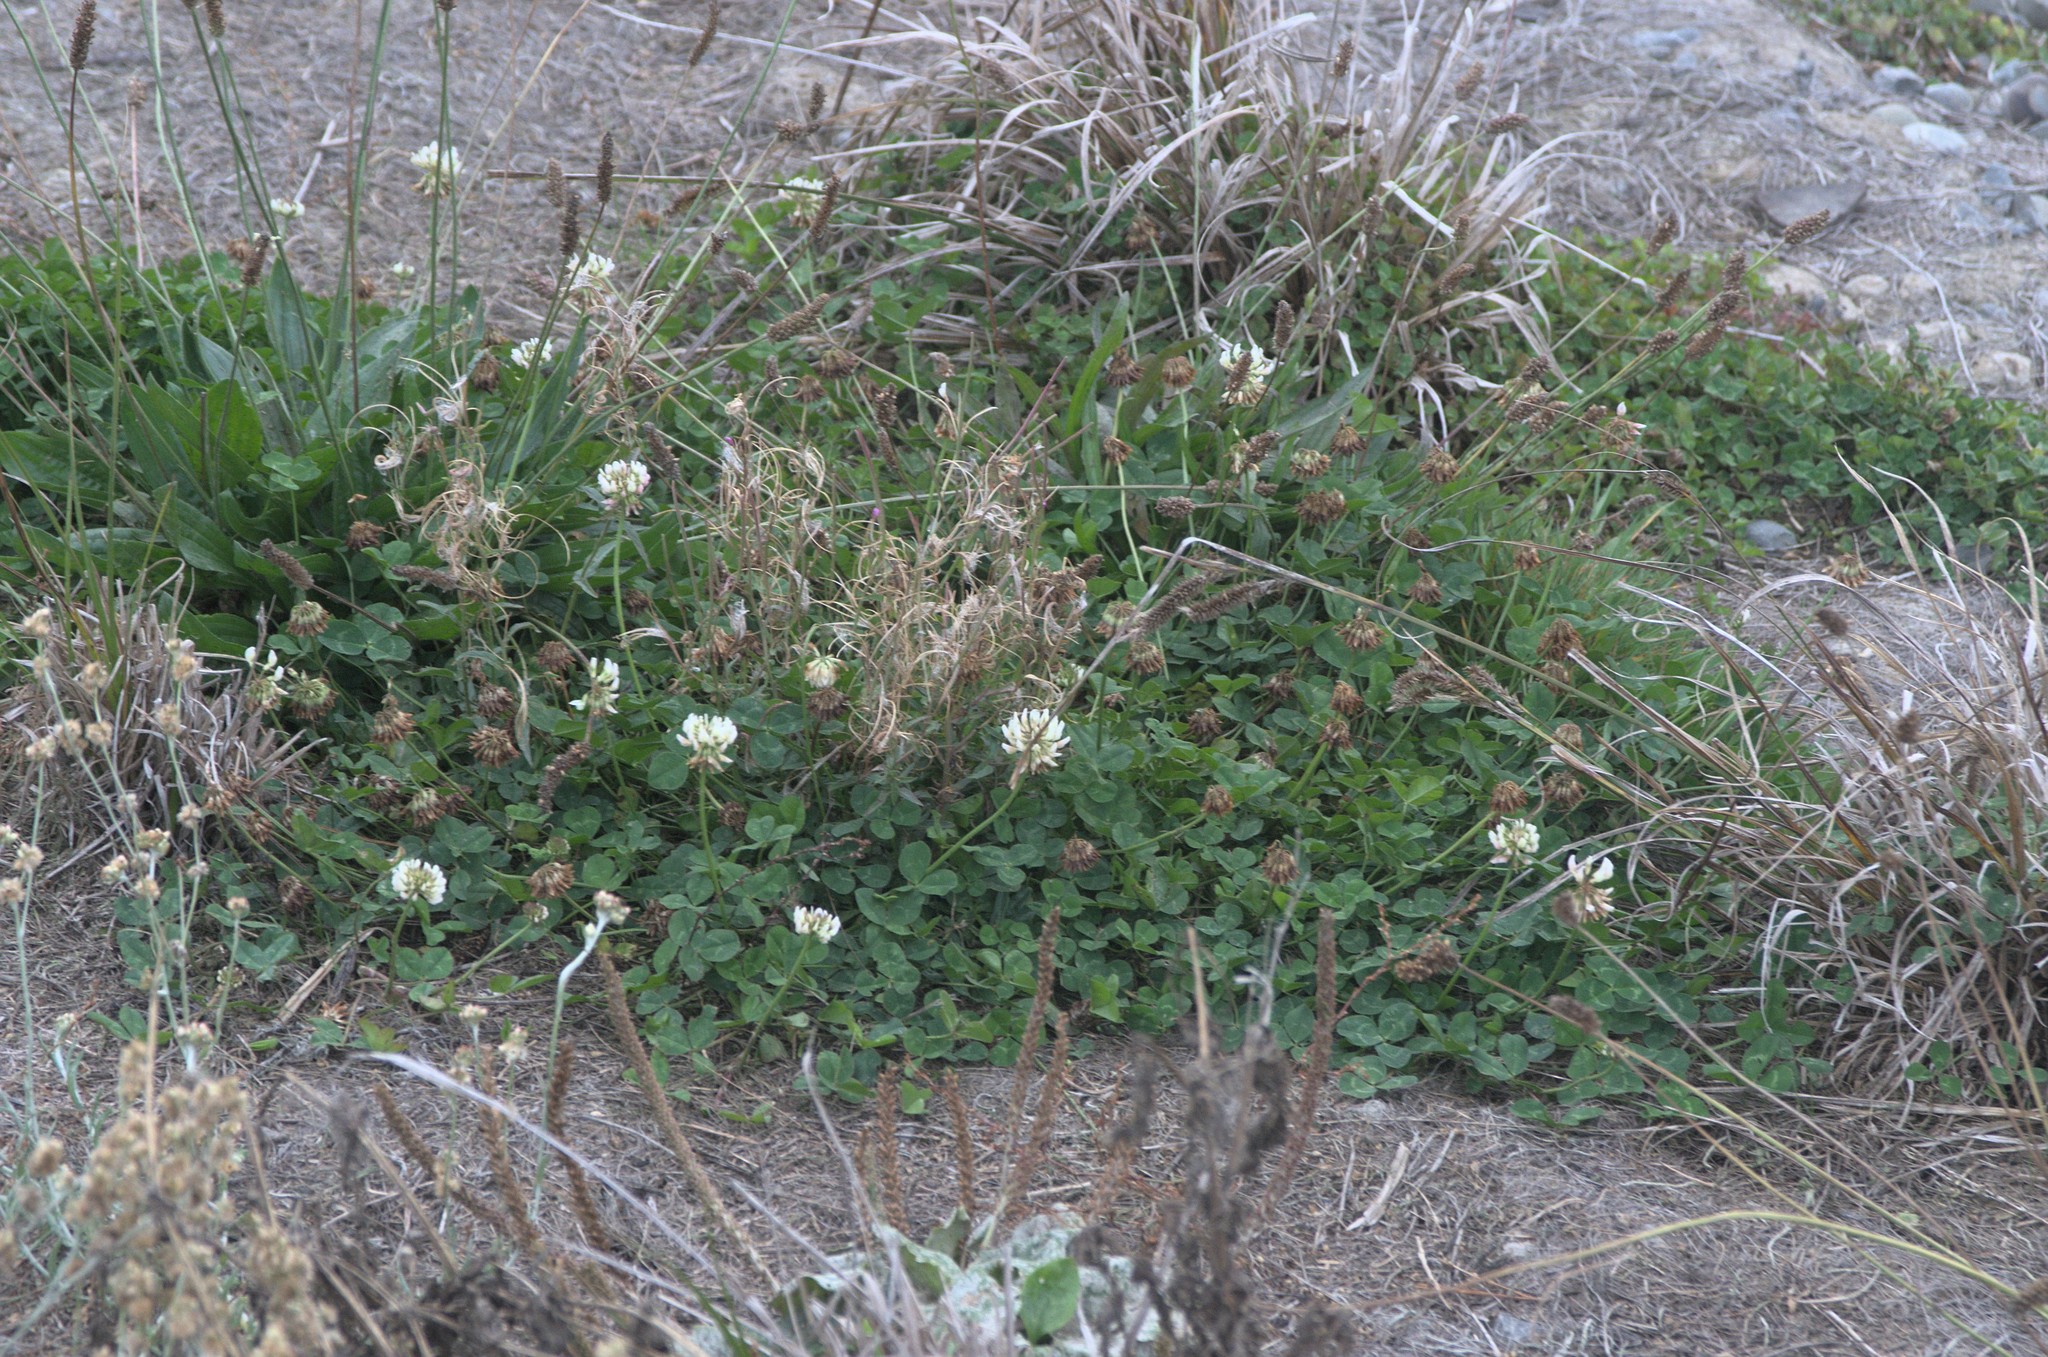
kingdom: Plantae
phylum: Tracheophyta
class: Magnoliopsida
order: Fabales
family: Fabaceae
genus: Trifolium
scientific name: Trifolium repens
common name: White clover
